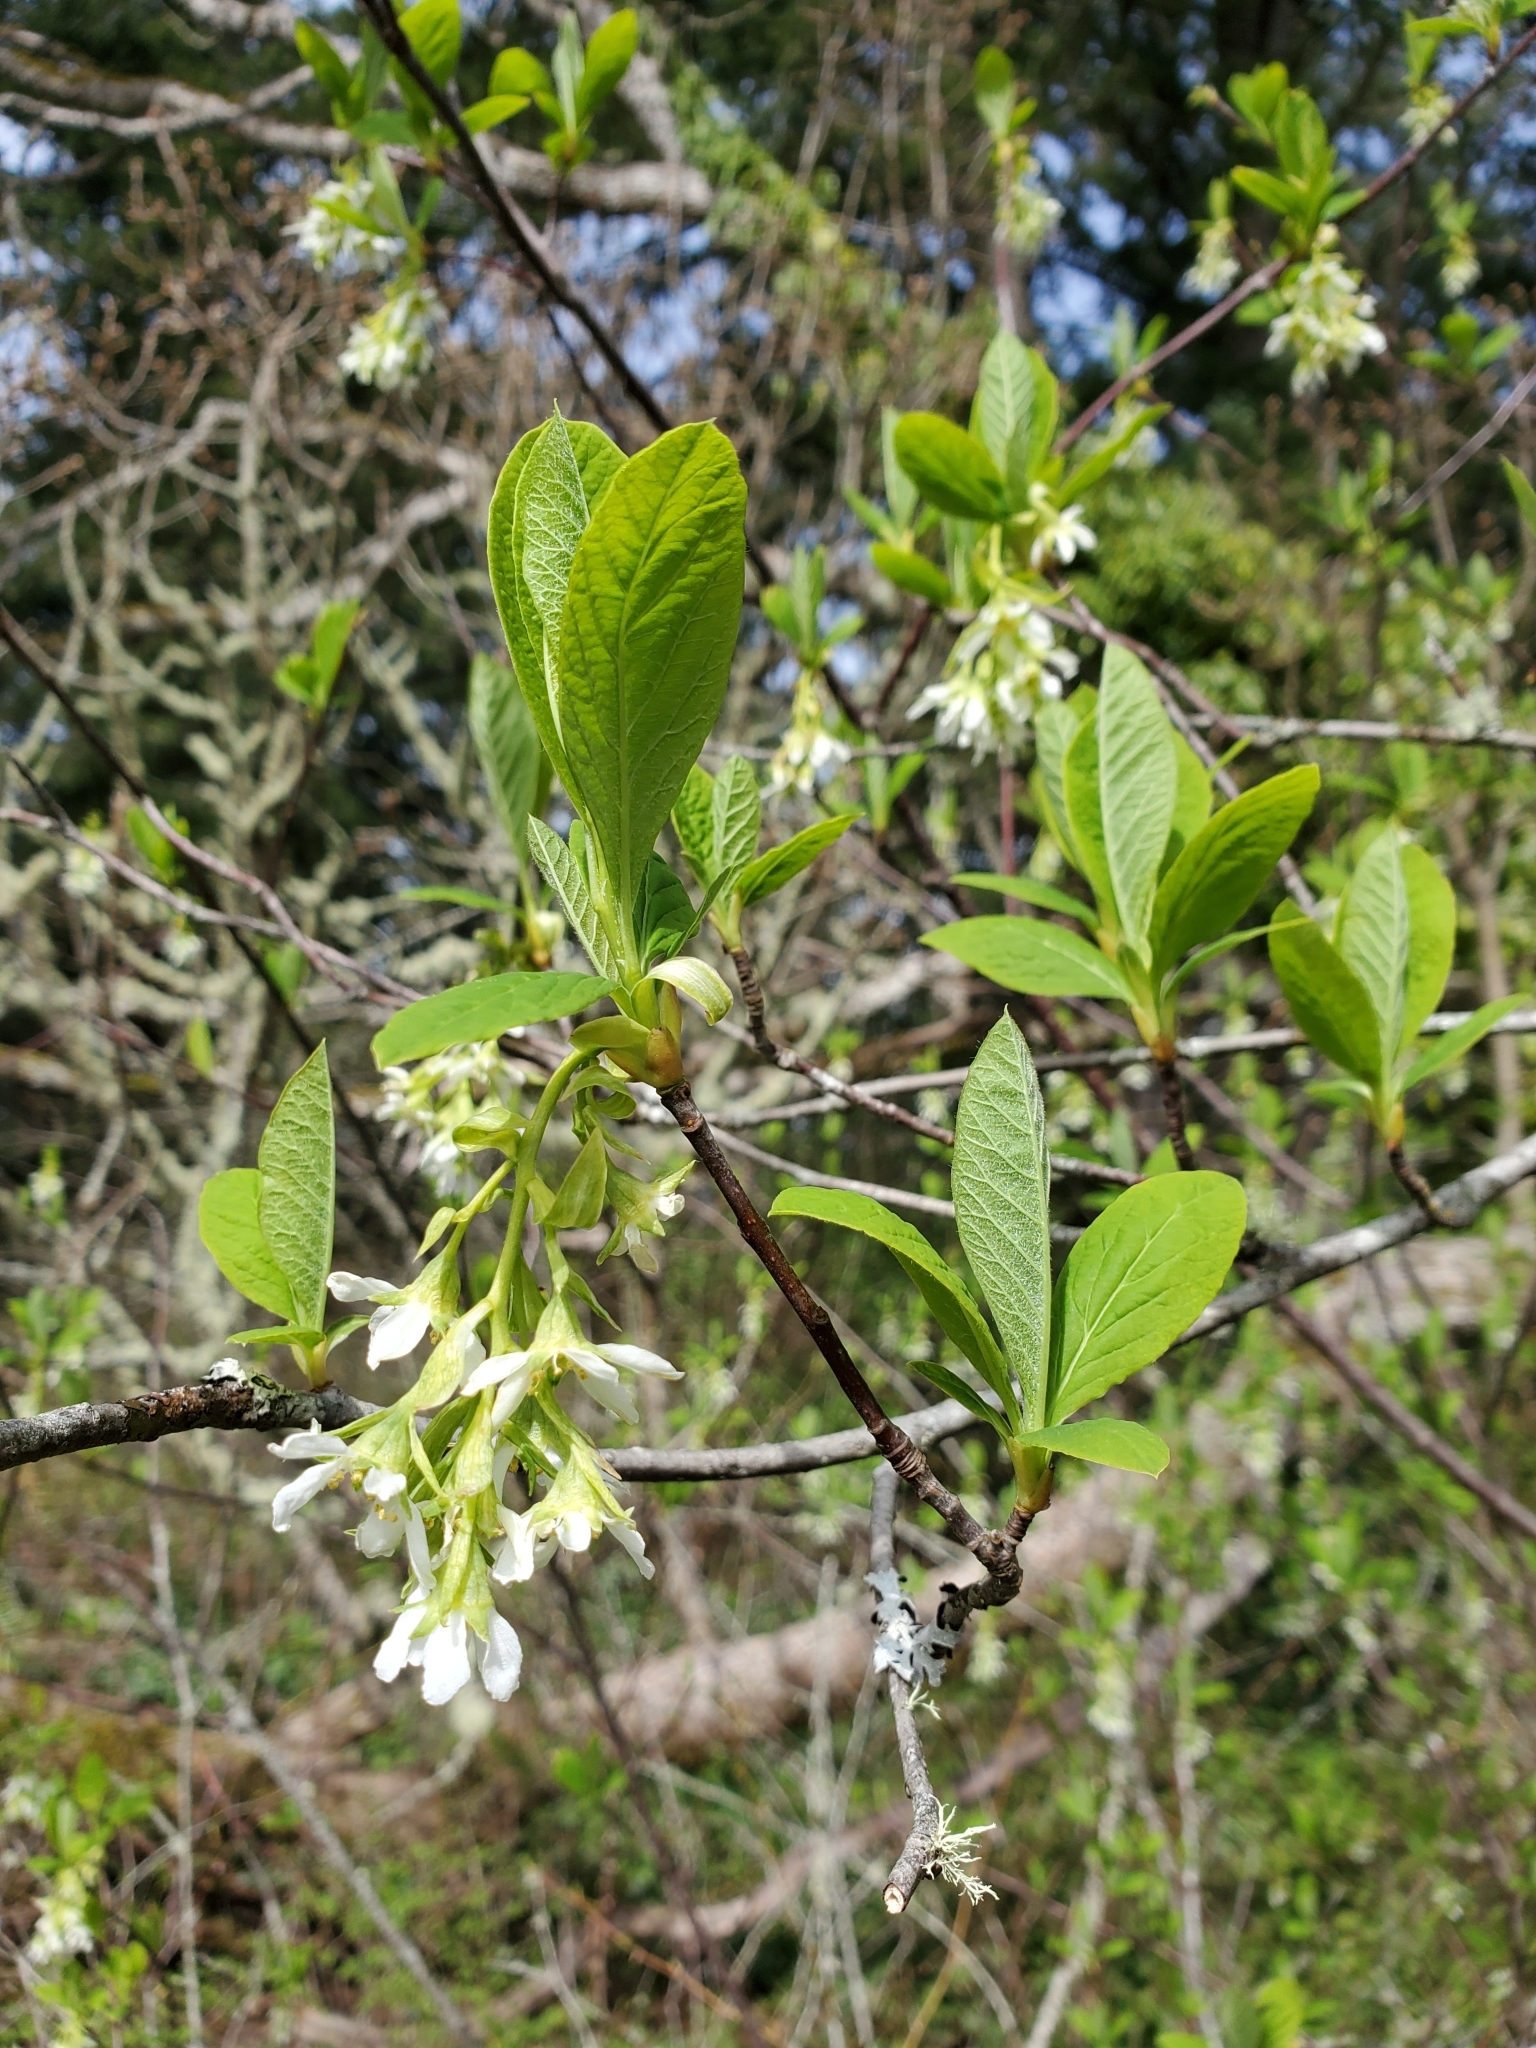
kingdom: Plantae
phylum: Tracheophyta
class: Magnoliopsida
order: Rosales
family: Rosaceae
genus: Oemleria
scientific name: Oemleria cerasiformis
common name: Osoberry
